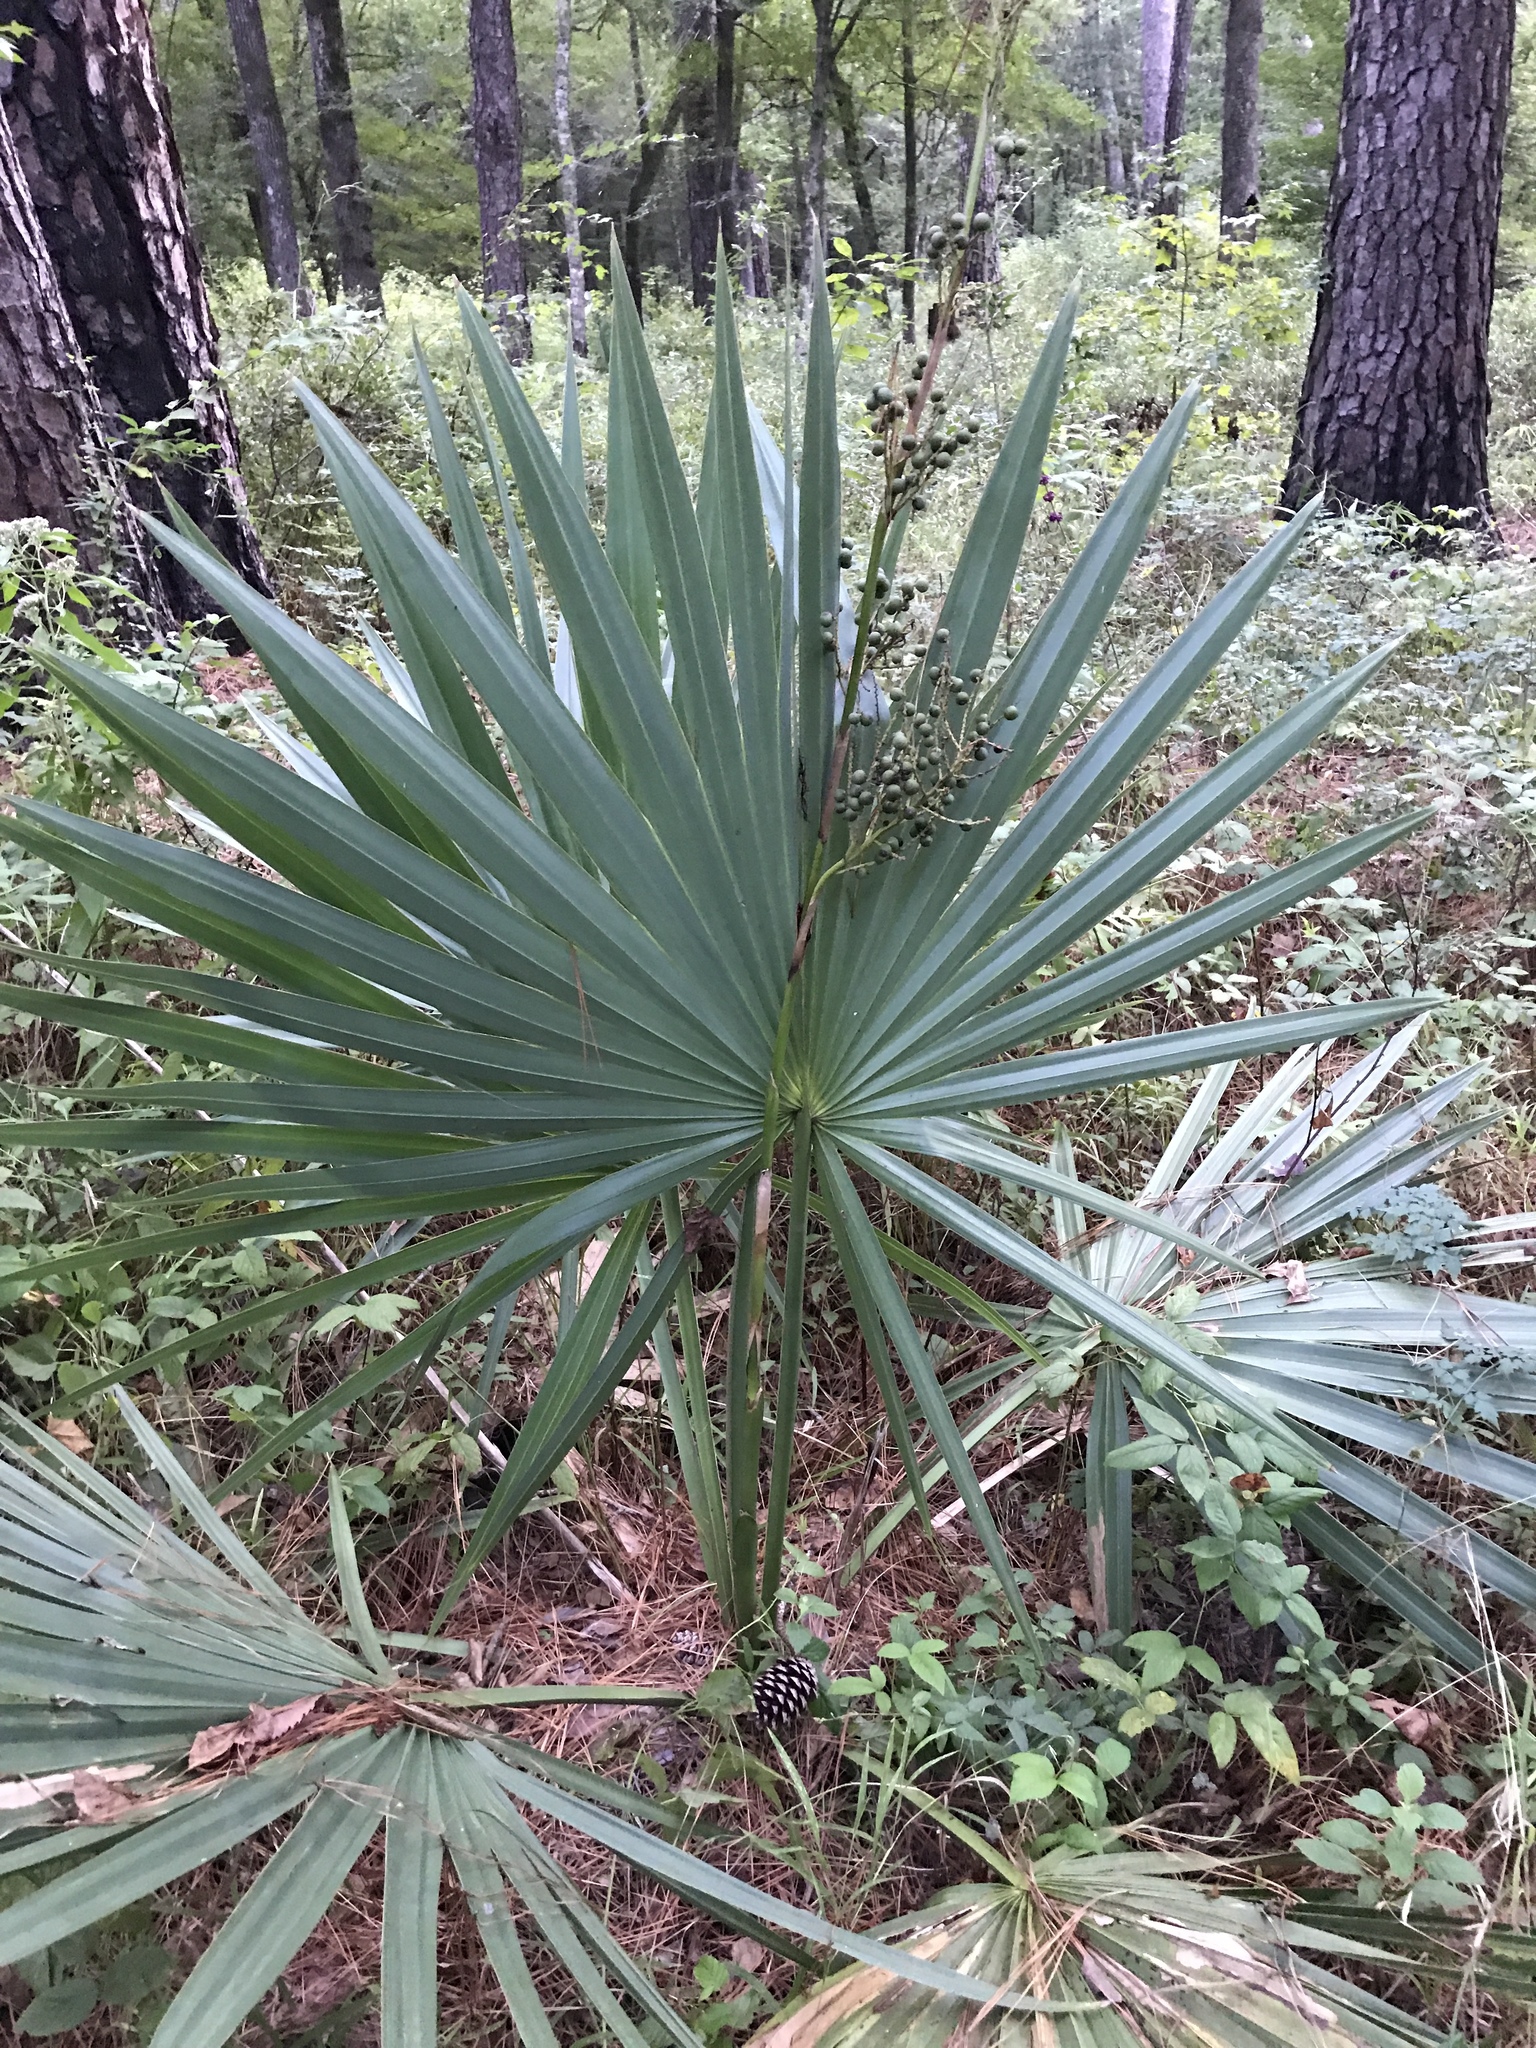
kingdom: Plantae
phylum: Tracheophyta
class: Liliopsida
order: Arecales
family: Arecaceae
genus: Sabal
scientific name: Sabal minor
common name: Dwarf palmetto
